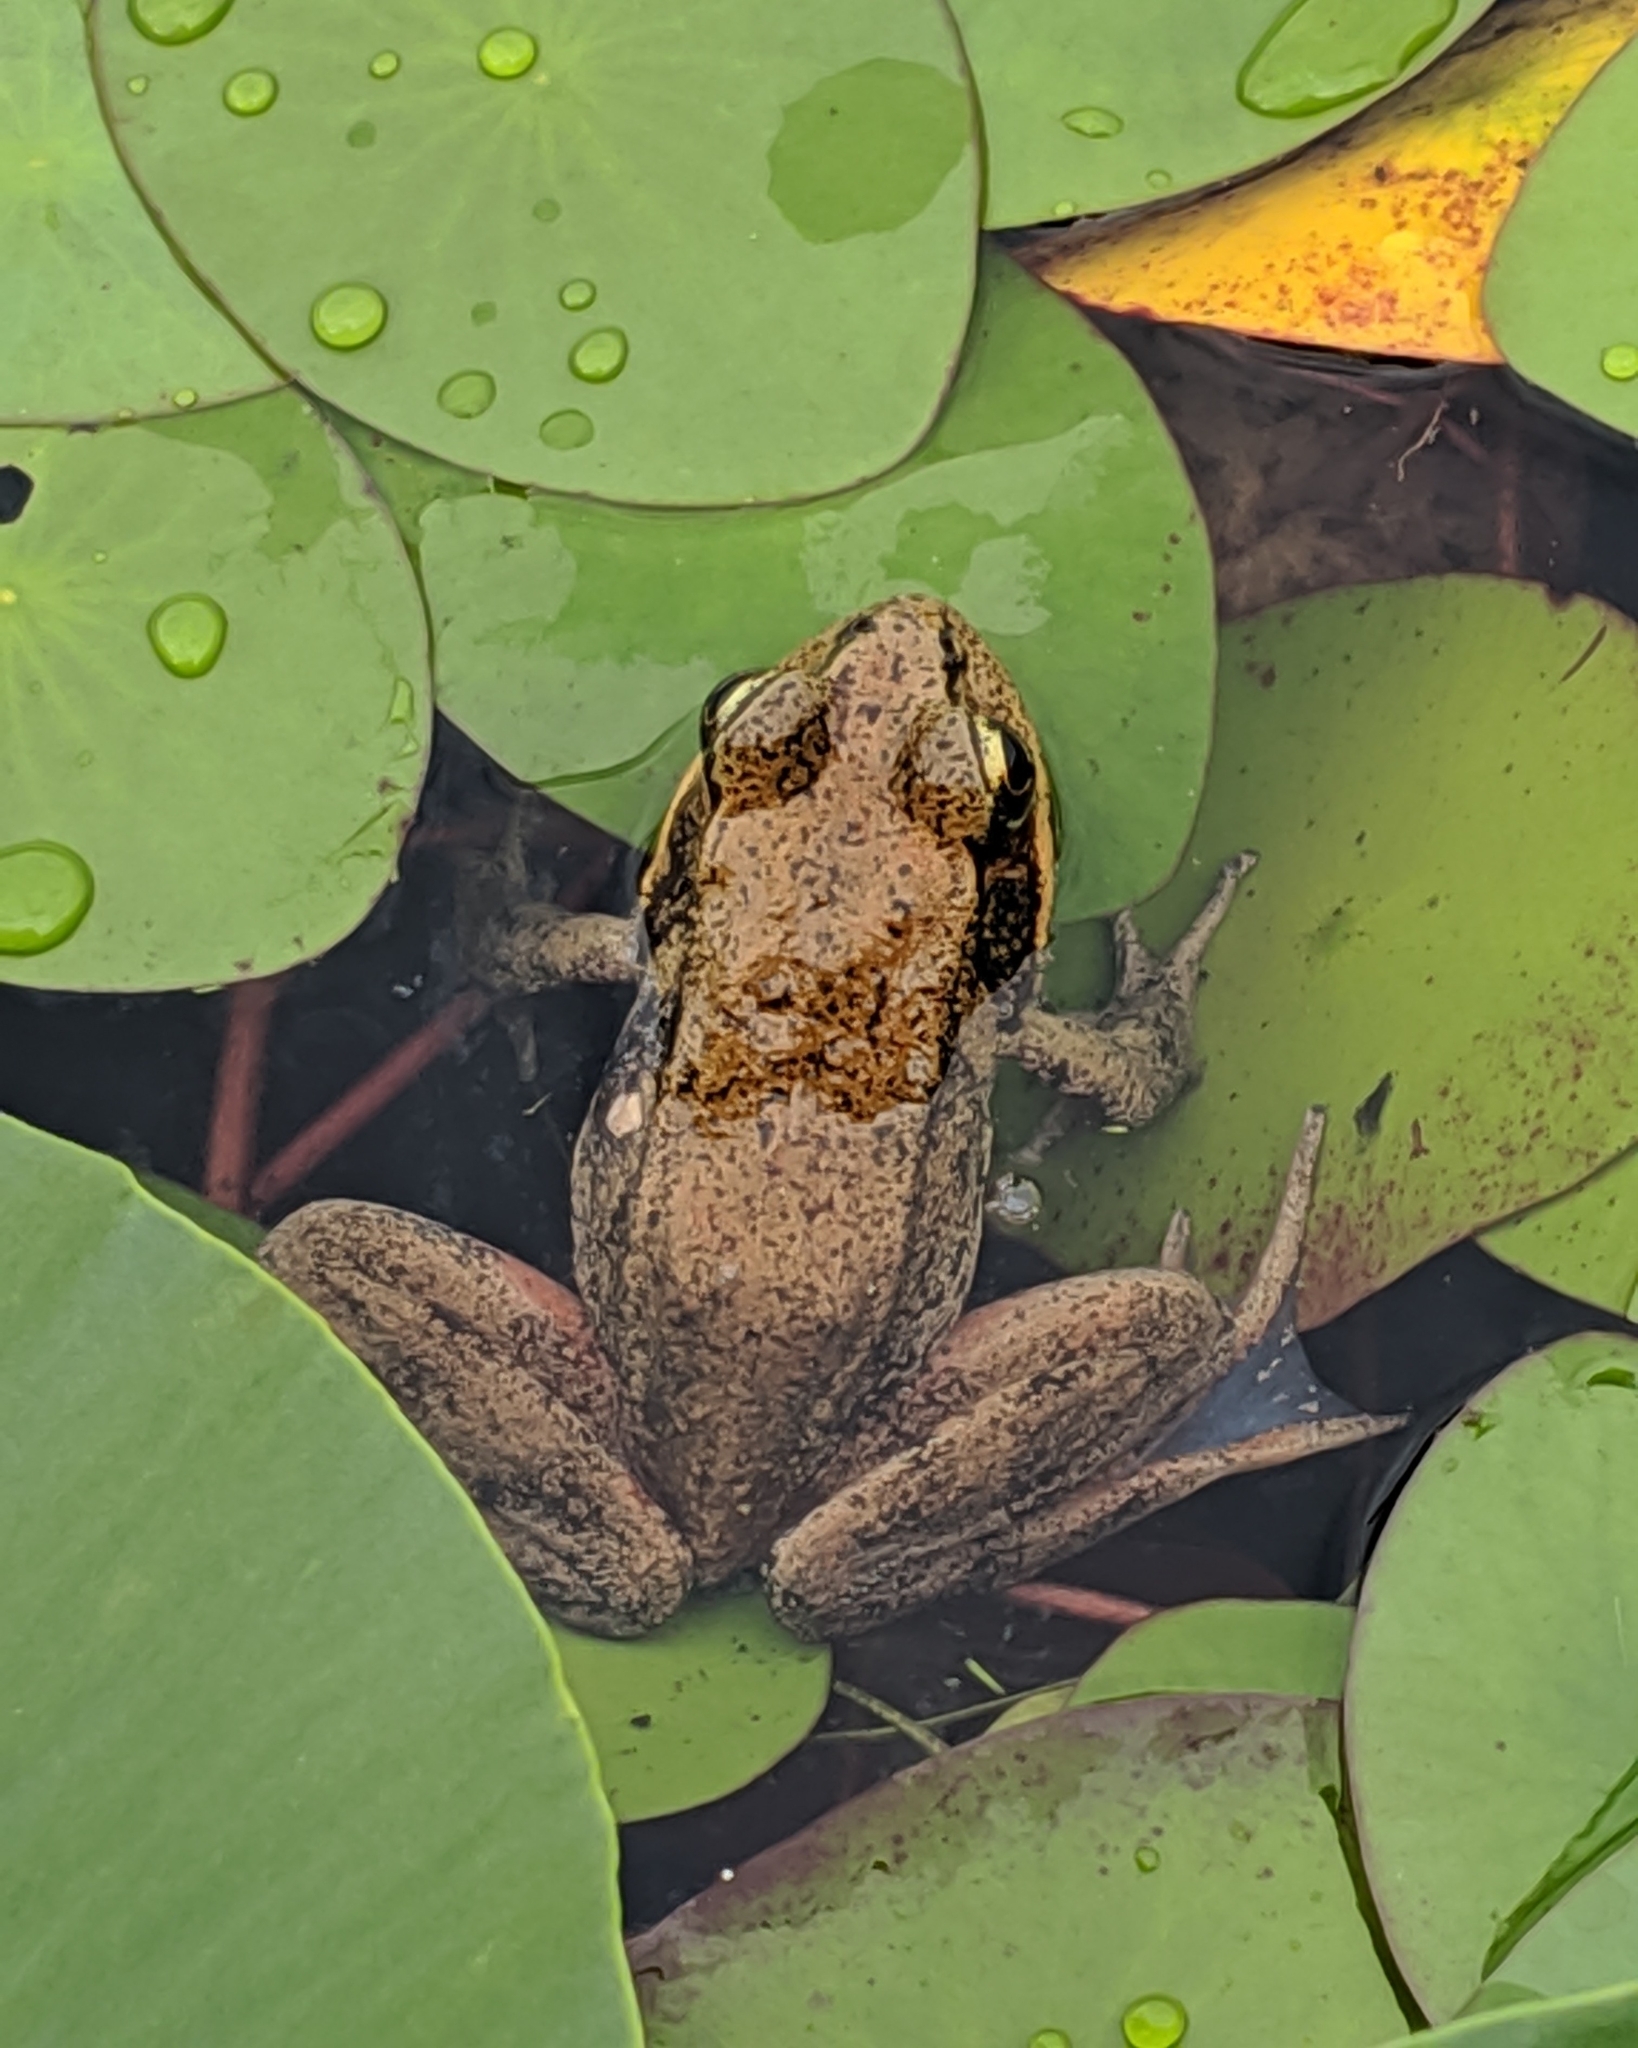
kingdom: Animalia
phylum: Chordata
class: Amphibia
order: Anura
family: Ranidae
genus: Rana
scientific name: Rana aurora
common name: Red-legged frog
